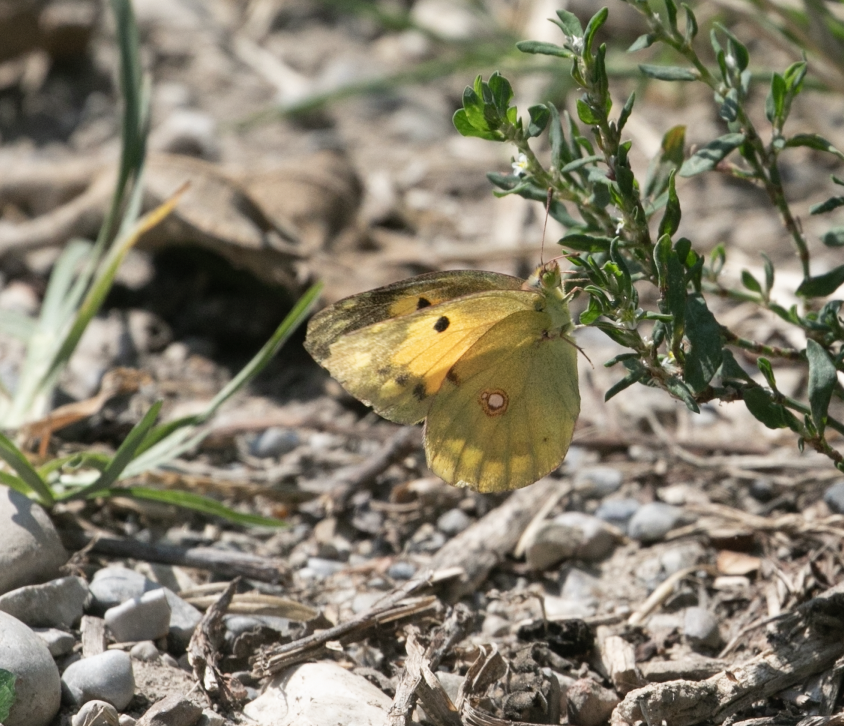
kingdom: Animalia
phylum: Arthropoda
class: Insecta
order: Lepidoptera
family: Pieridae
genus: Colias
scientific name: Colias croceus
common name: Clouded yellow
